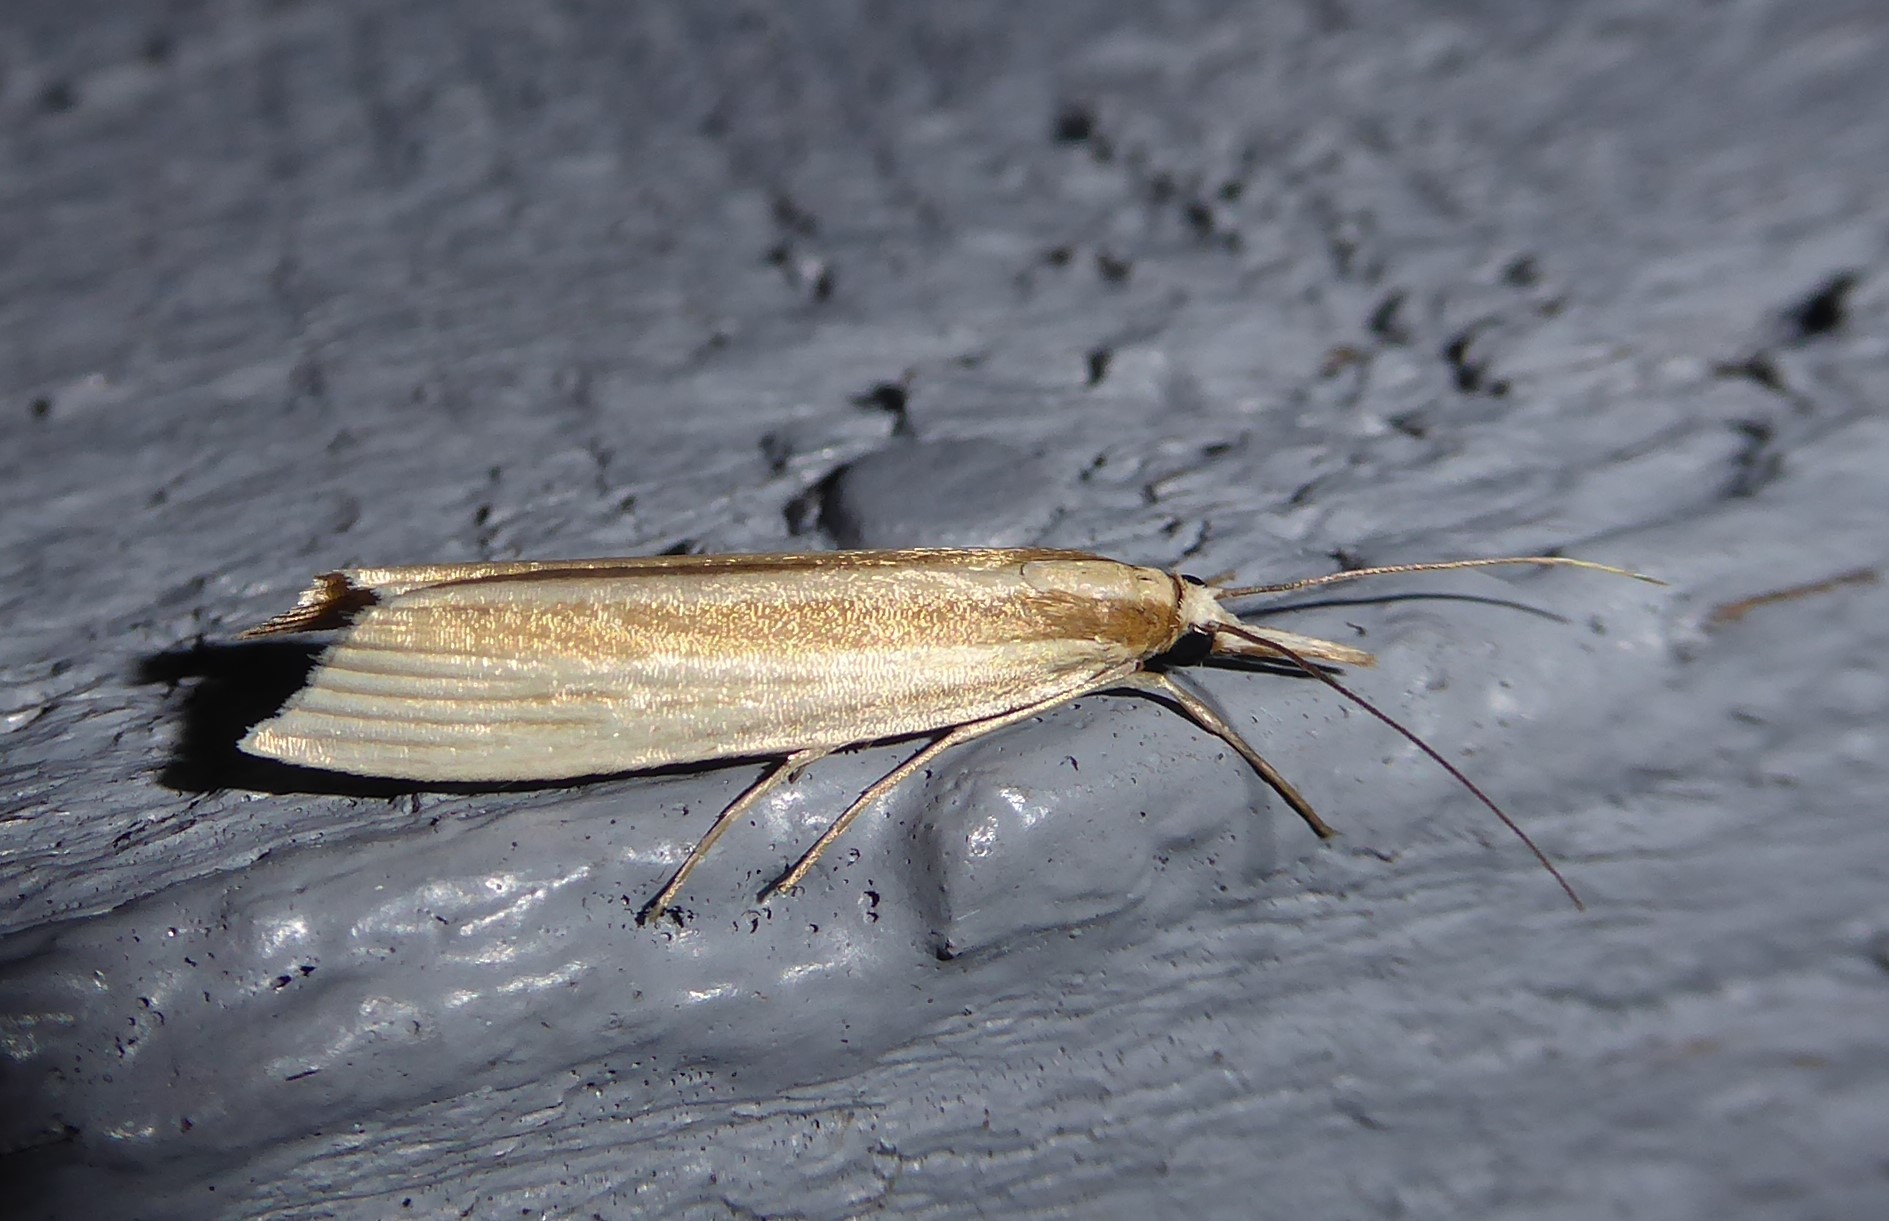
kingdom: Animalia
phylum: Arthropoda
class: Insecta
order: Lepidoptera
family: Crambidae
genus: Orocrambus
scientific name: Orocrambus angustipennis
